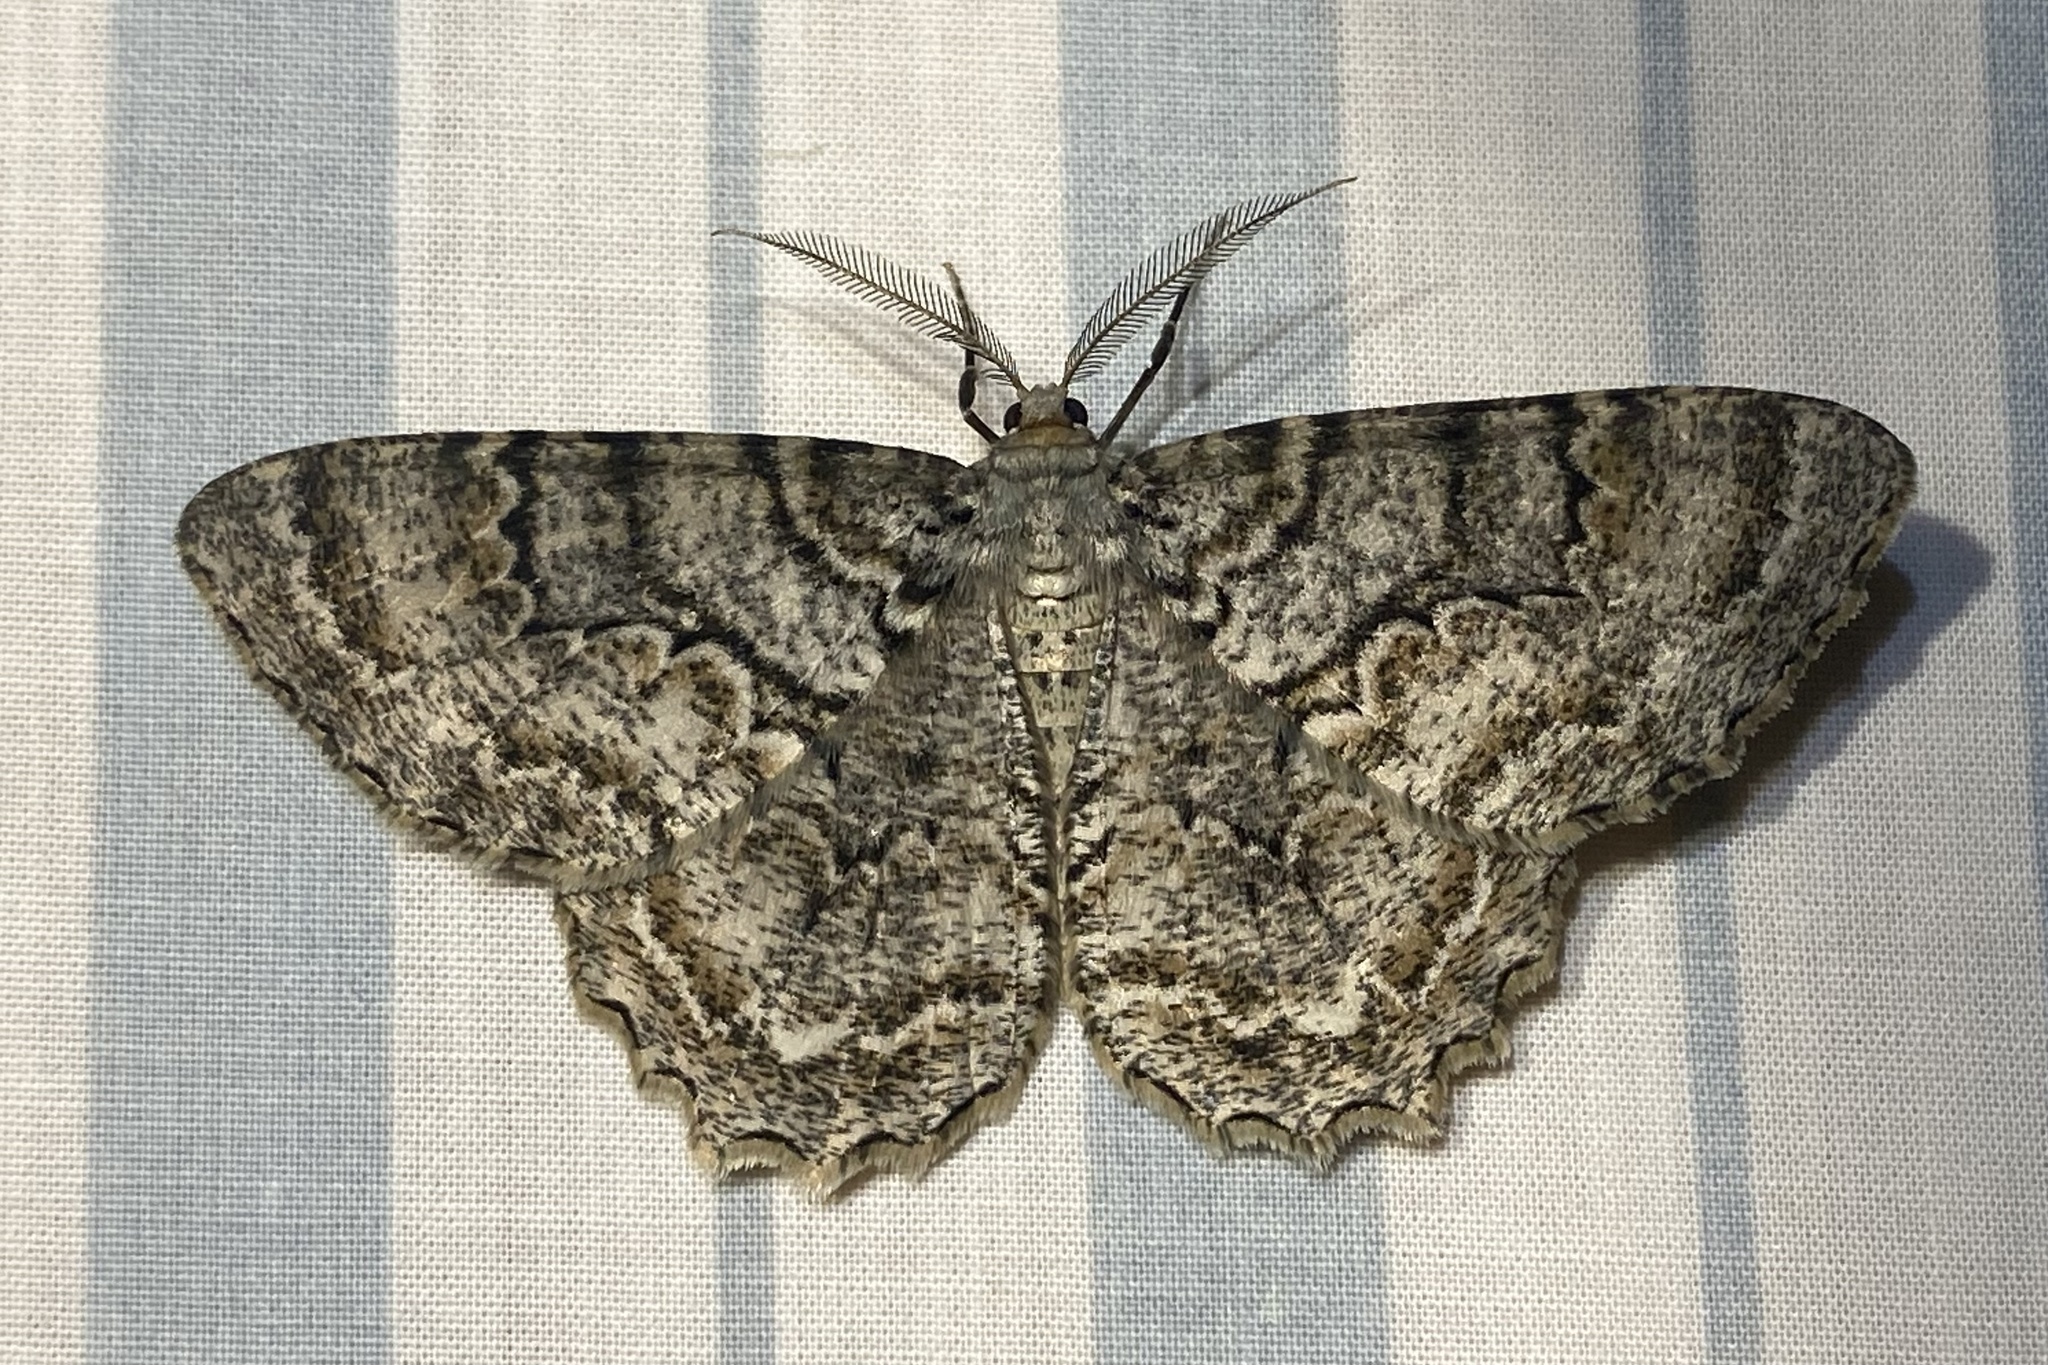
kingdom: Animalia
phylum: Arthropoda
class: Insecta
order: Lepidoptera
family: Geometridae
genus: Epimecis
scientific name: Epimecis hortaria
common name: Tulip-tree beauty
